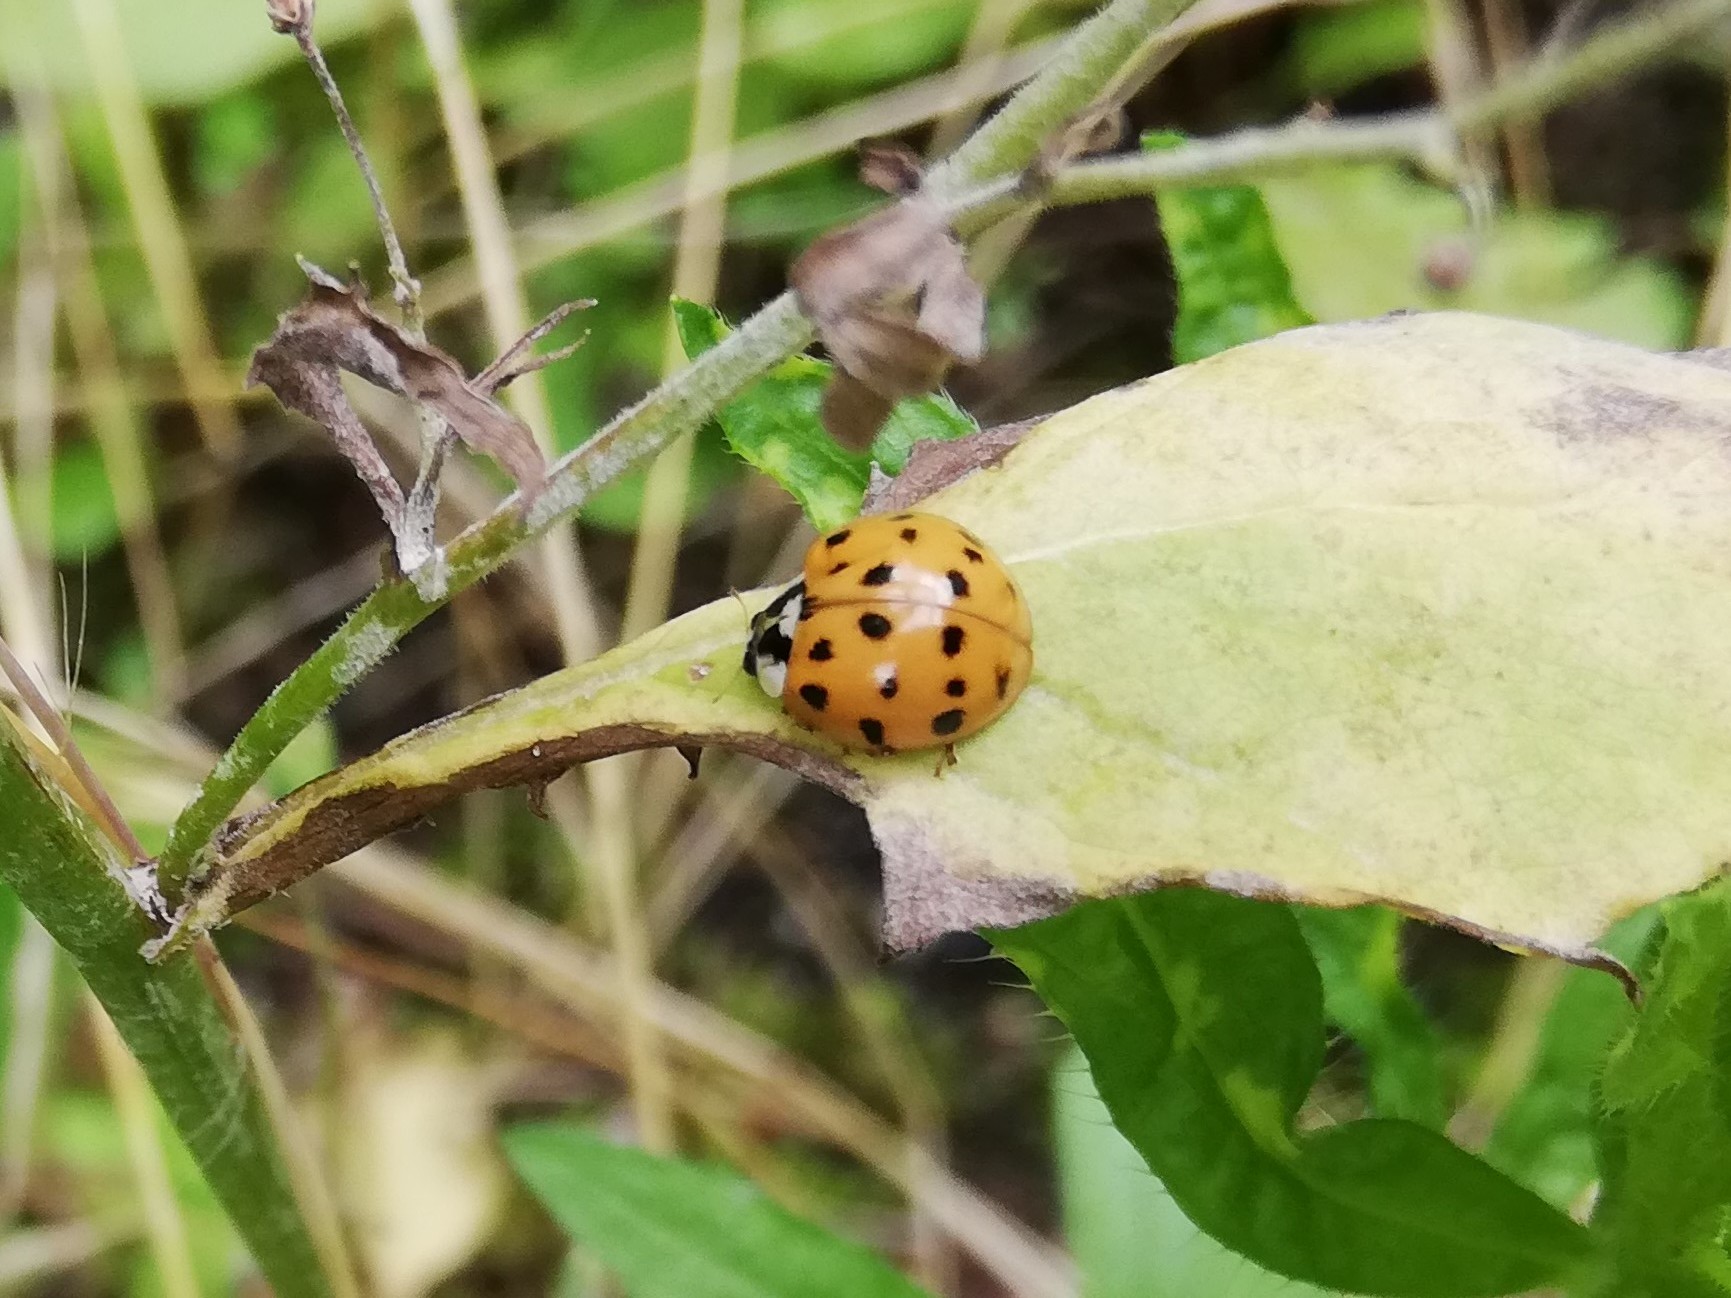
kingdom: Animalia
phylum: Arthropoda
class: Insecta
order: Coleoptera
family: Coccinellidae
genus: Harmonia
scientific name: Harmonia axyridis
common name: Harlequin ladybird
